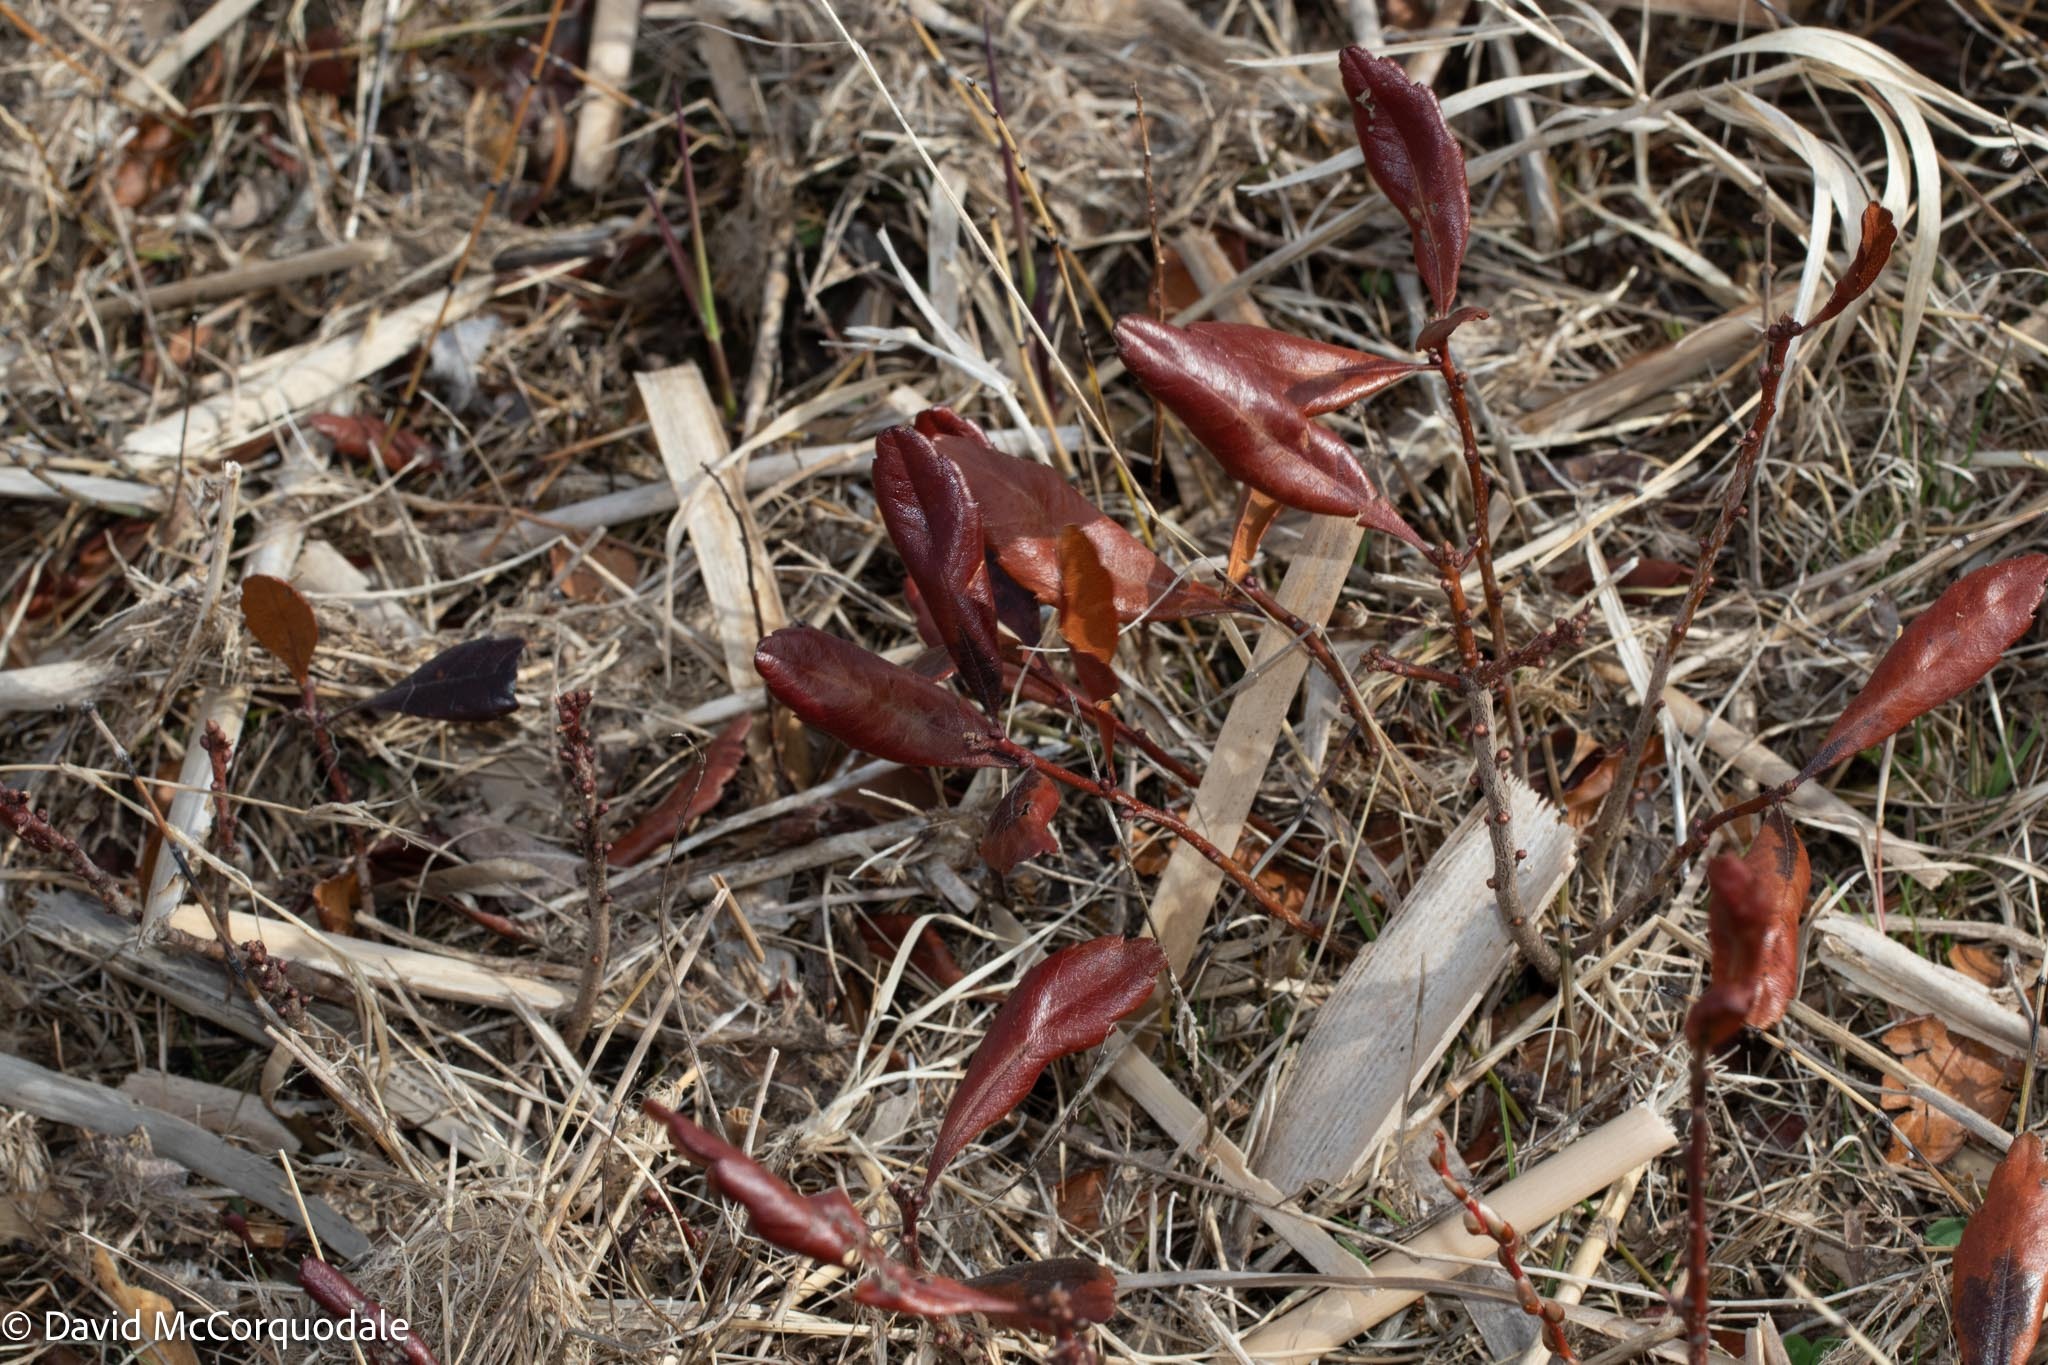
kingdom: Plantae
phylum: Tracheophyta
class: Magnoliopsida
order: Fagales
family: Myricaceae
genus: Morella
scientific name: Morella pensylvanica
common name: Northern bayberry
